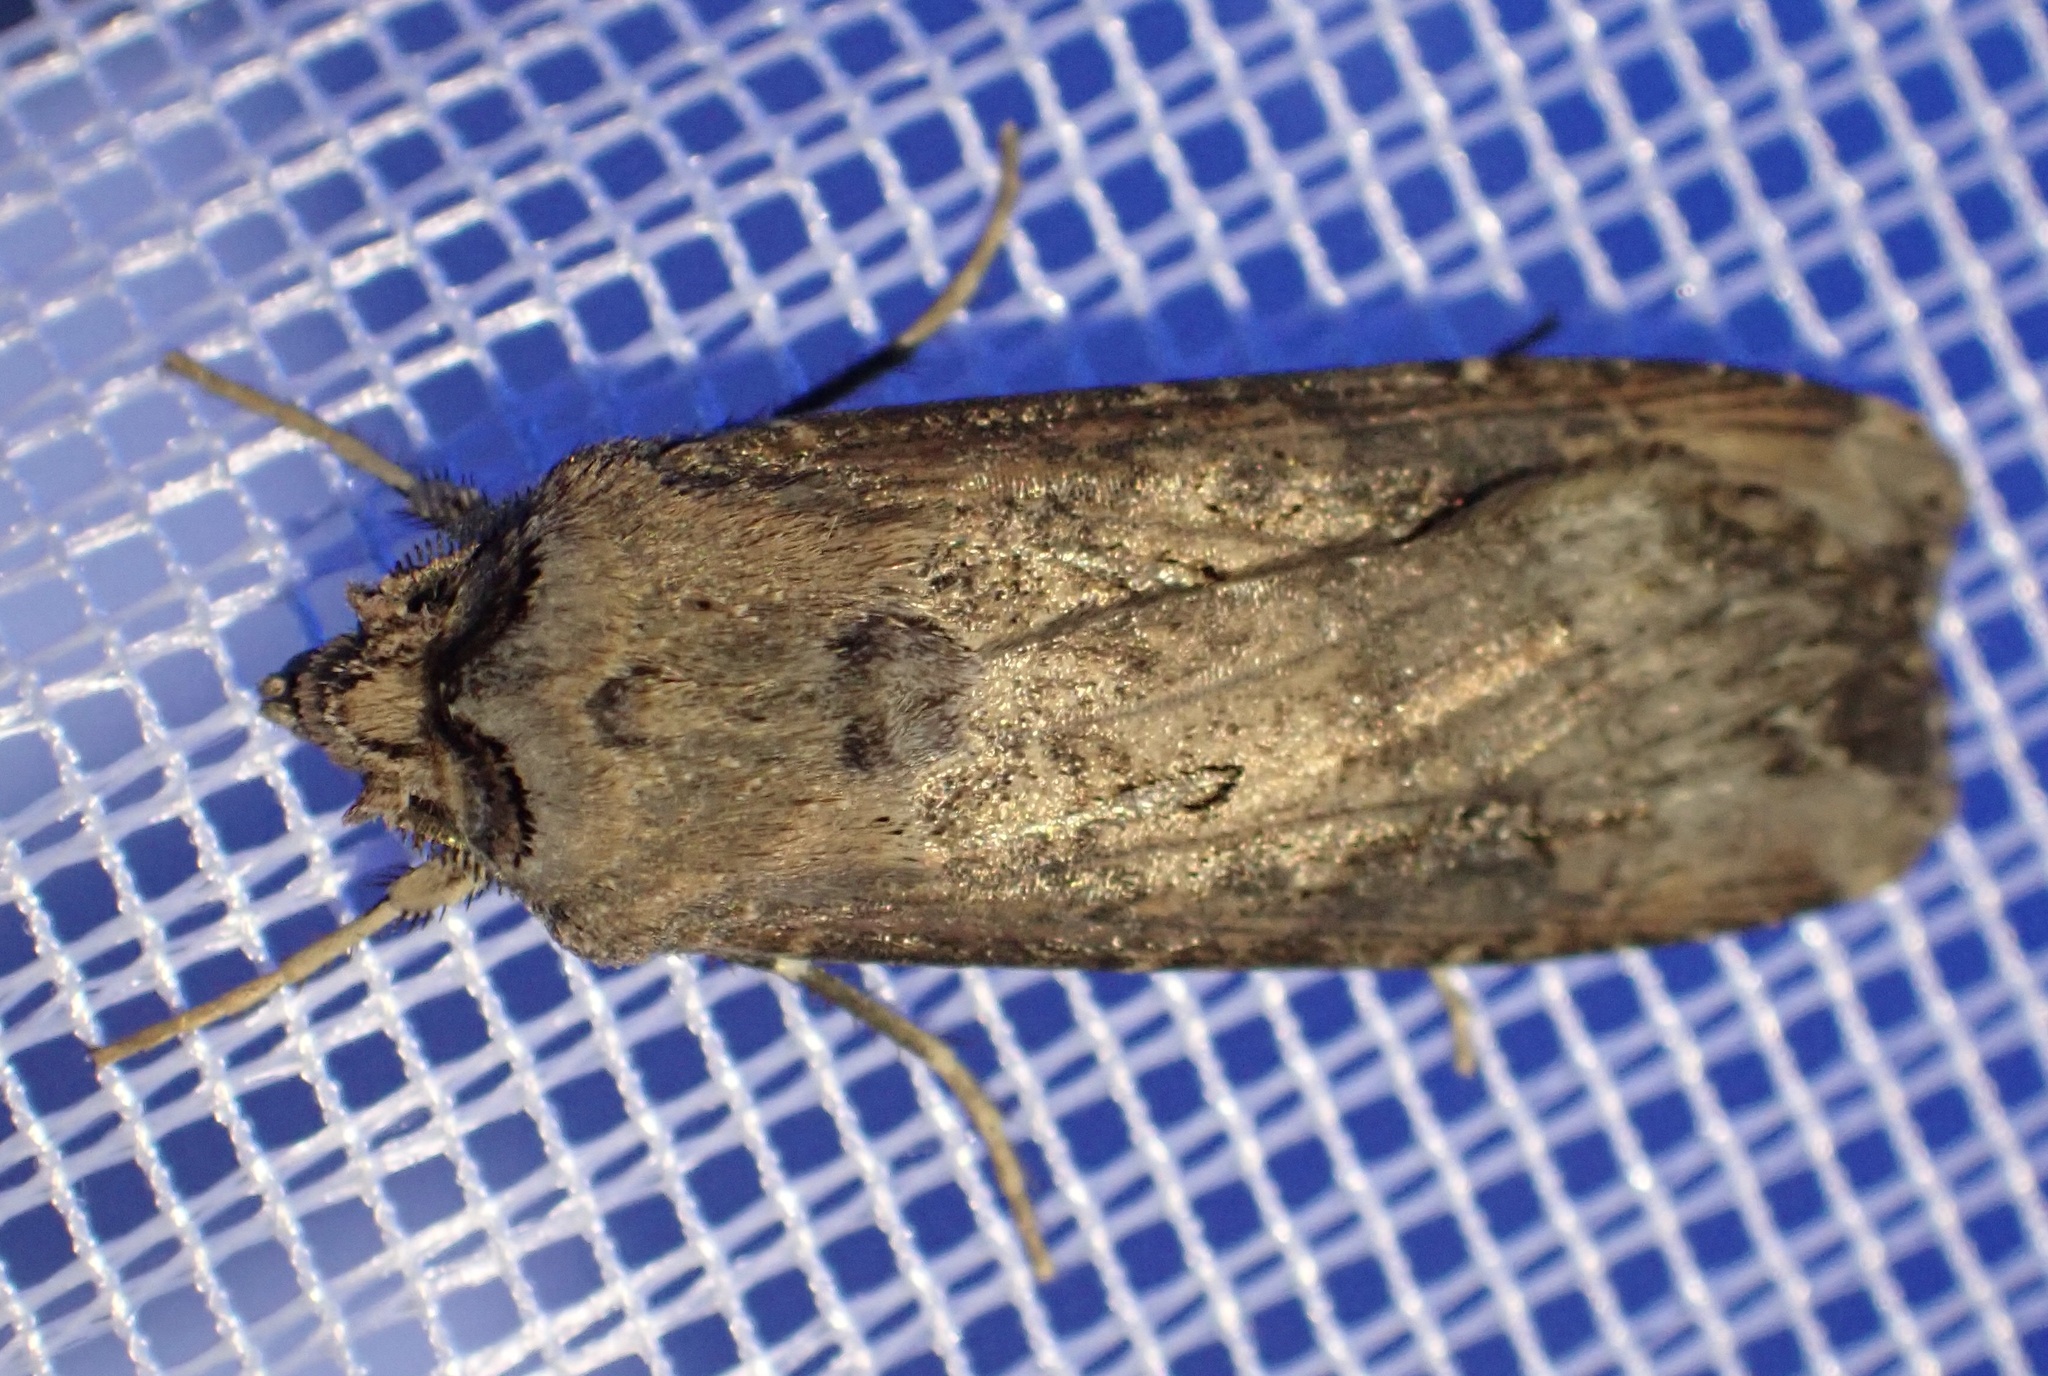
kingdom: Animalia
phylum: Arthropoda
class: Insecta
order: Lepidoptera
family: Noctuidae
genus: Agrotis
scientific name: Agrotis ipsilon
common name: Dark sword-grass
